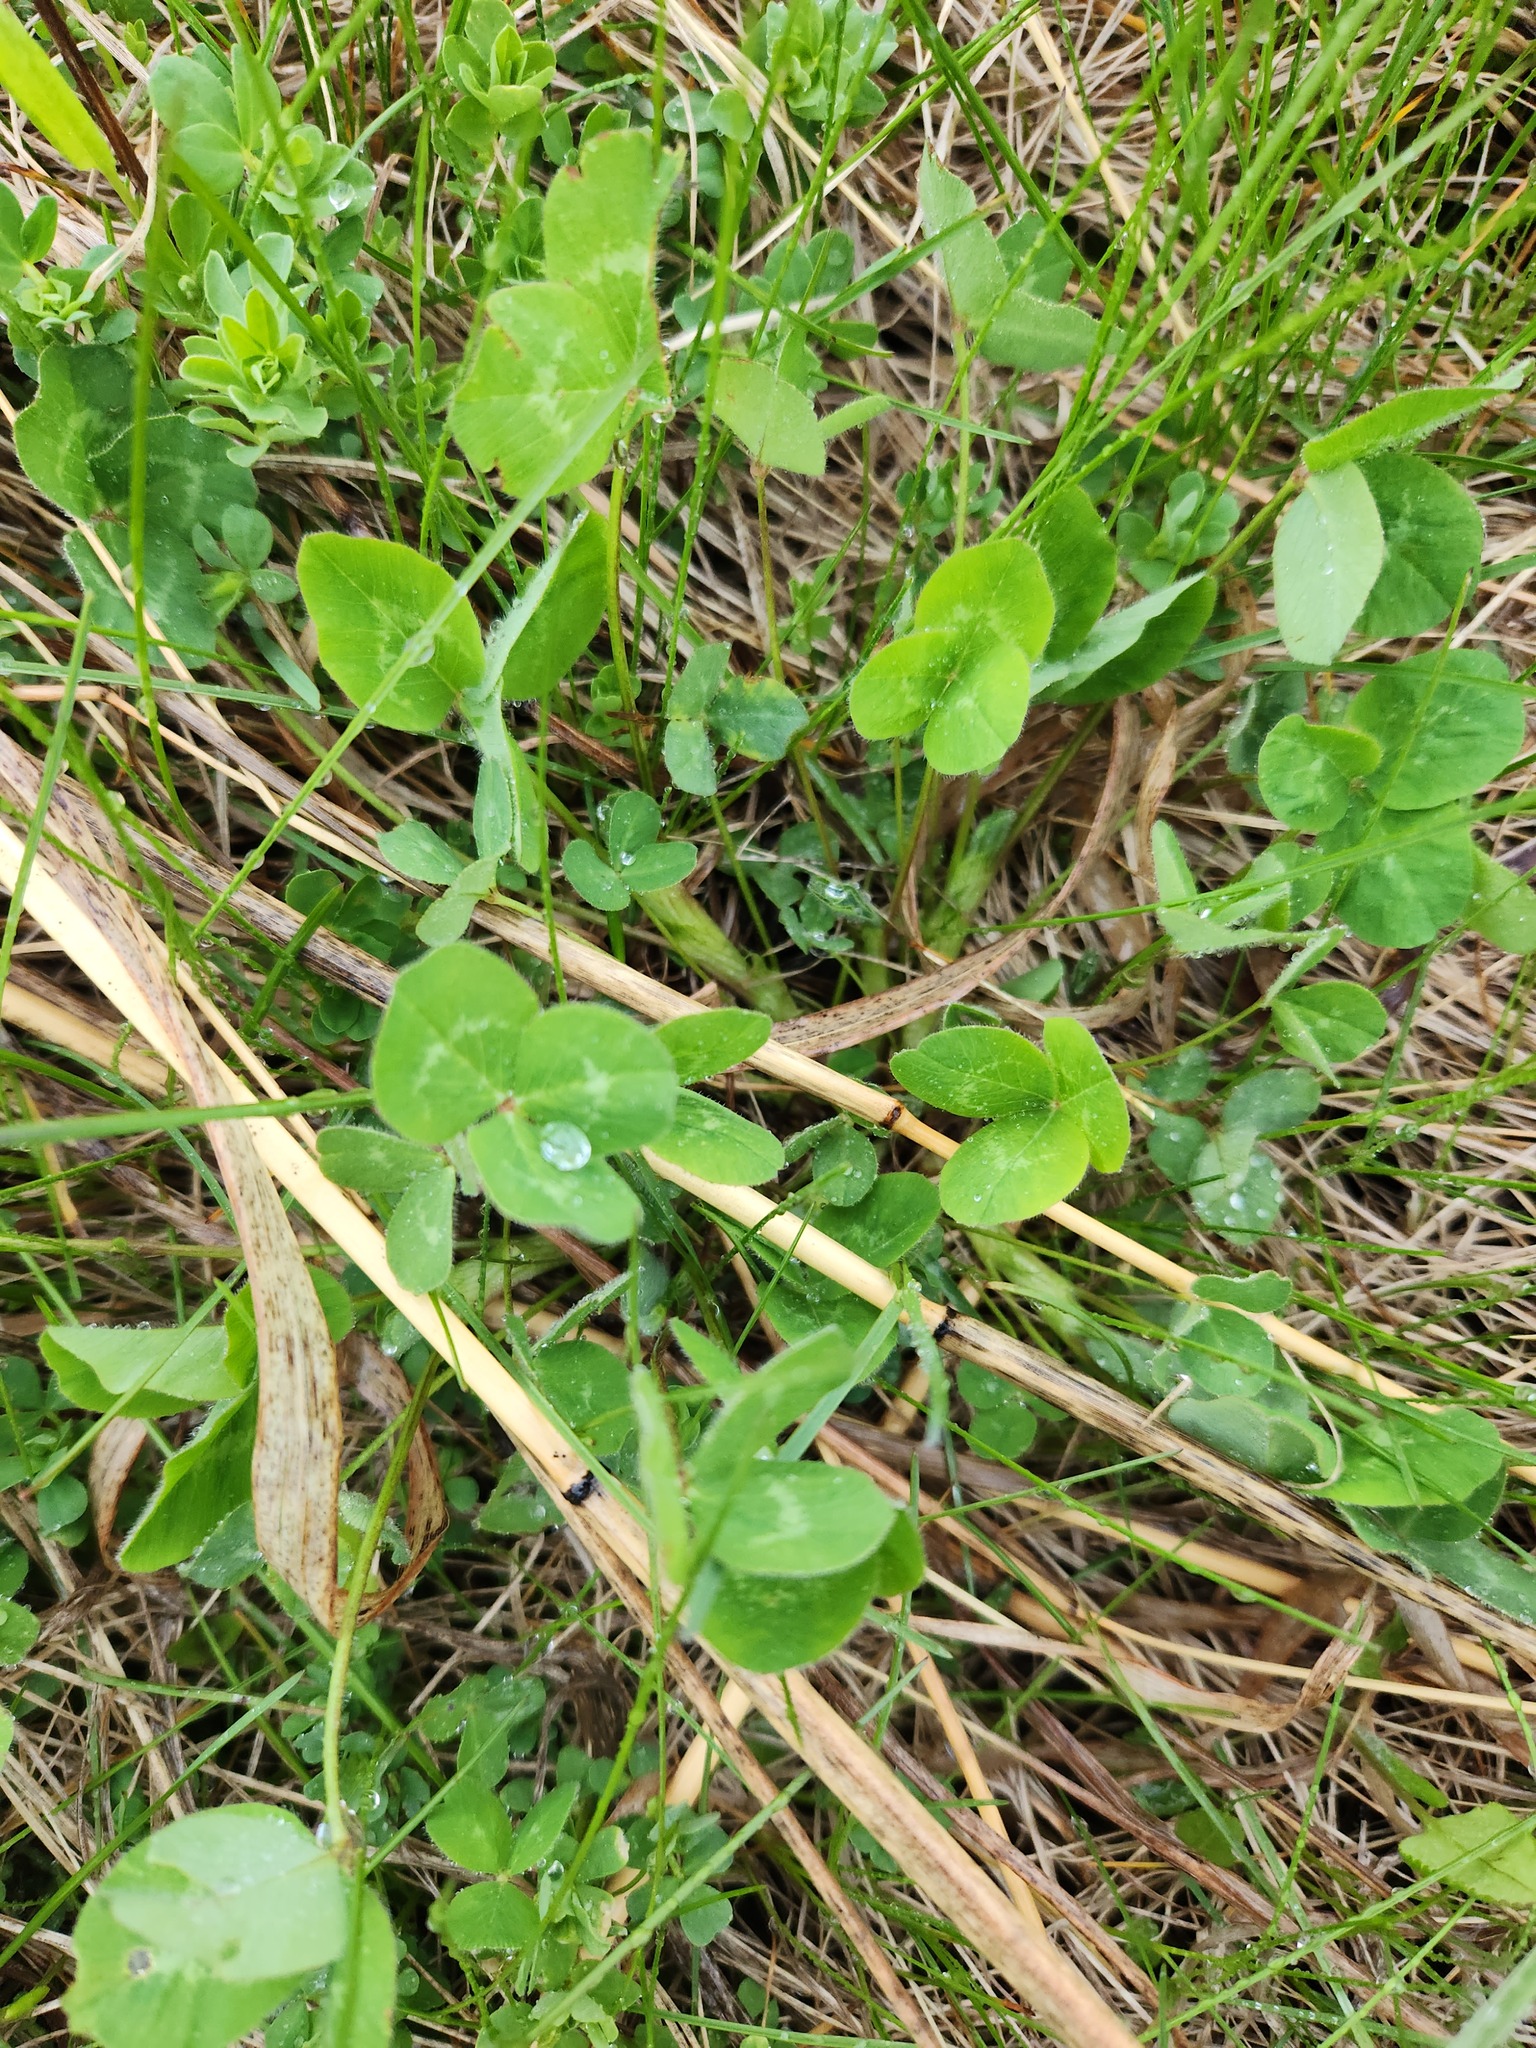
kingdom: Plantae
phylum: Tracheophyta
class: Magnoliopsida
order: Fabales
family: Fabaceae
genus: Trifolium
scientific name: Trifolium pratense
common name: Red clover
